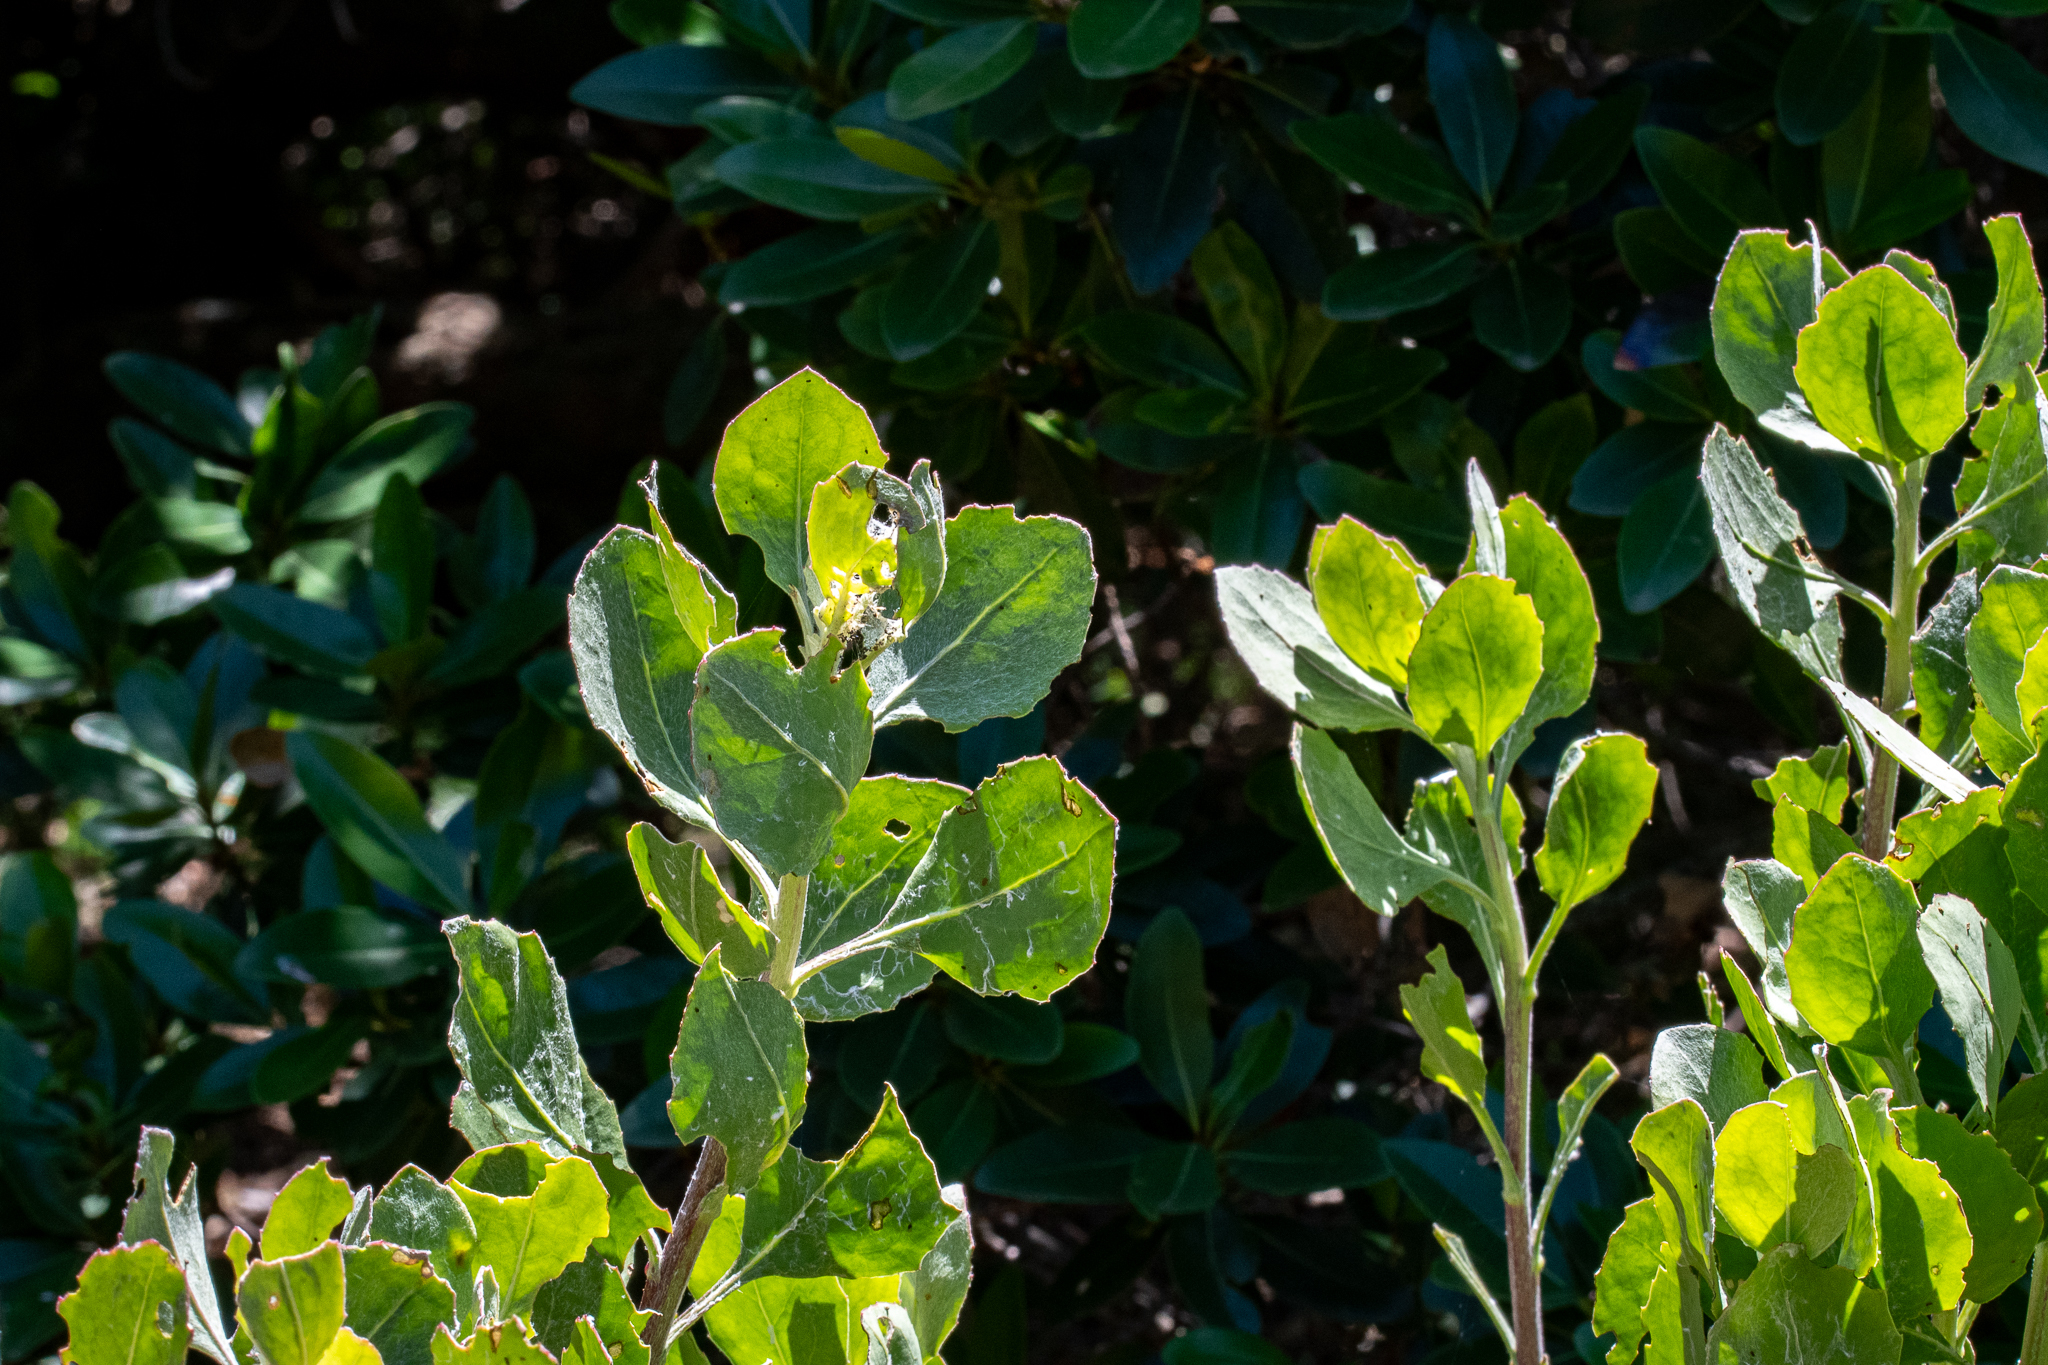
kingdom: Plantae
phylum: Tracheophyta
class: Magnoliopsida
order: Asterales
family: Asteraceae
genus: Osteospermum
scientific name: Osteospermum moniliferum
